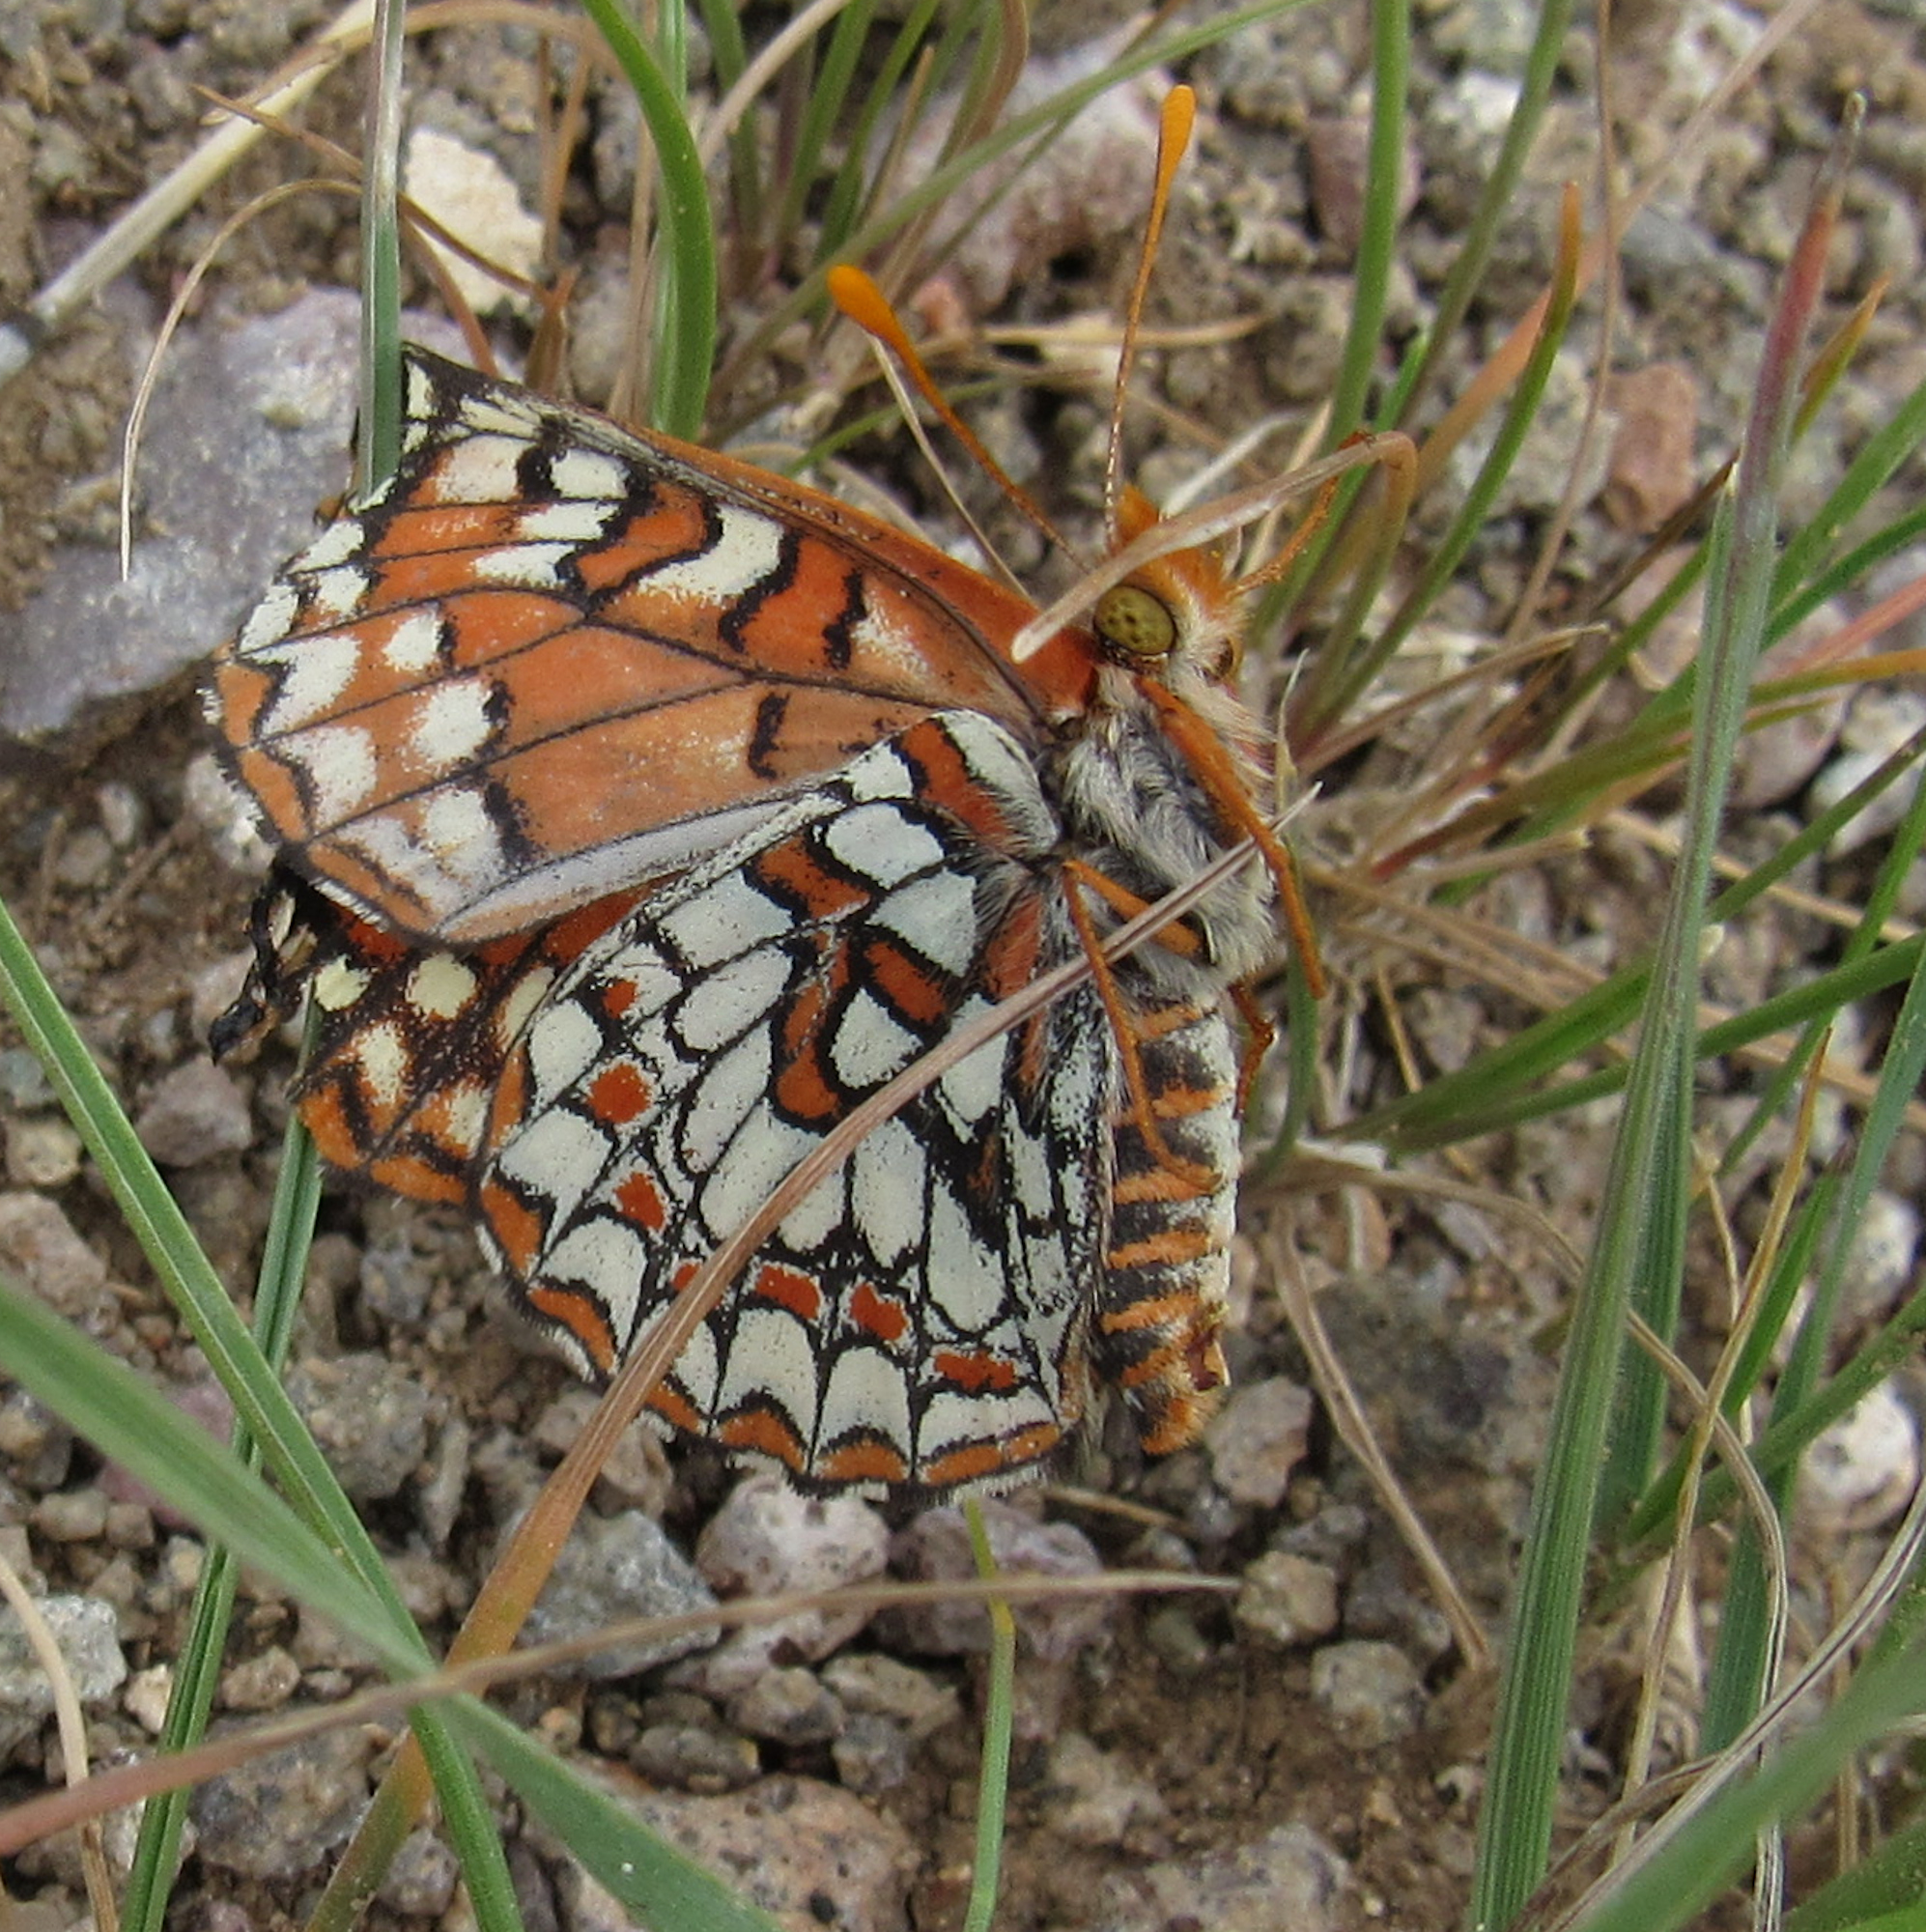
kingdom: Animalia
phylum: Arthropoda
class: Insecta
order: Lepidoptera
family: Nymphalidae
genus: Occidryas
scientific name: Occidryas anicia
